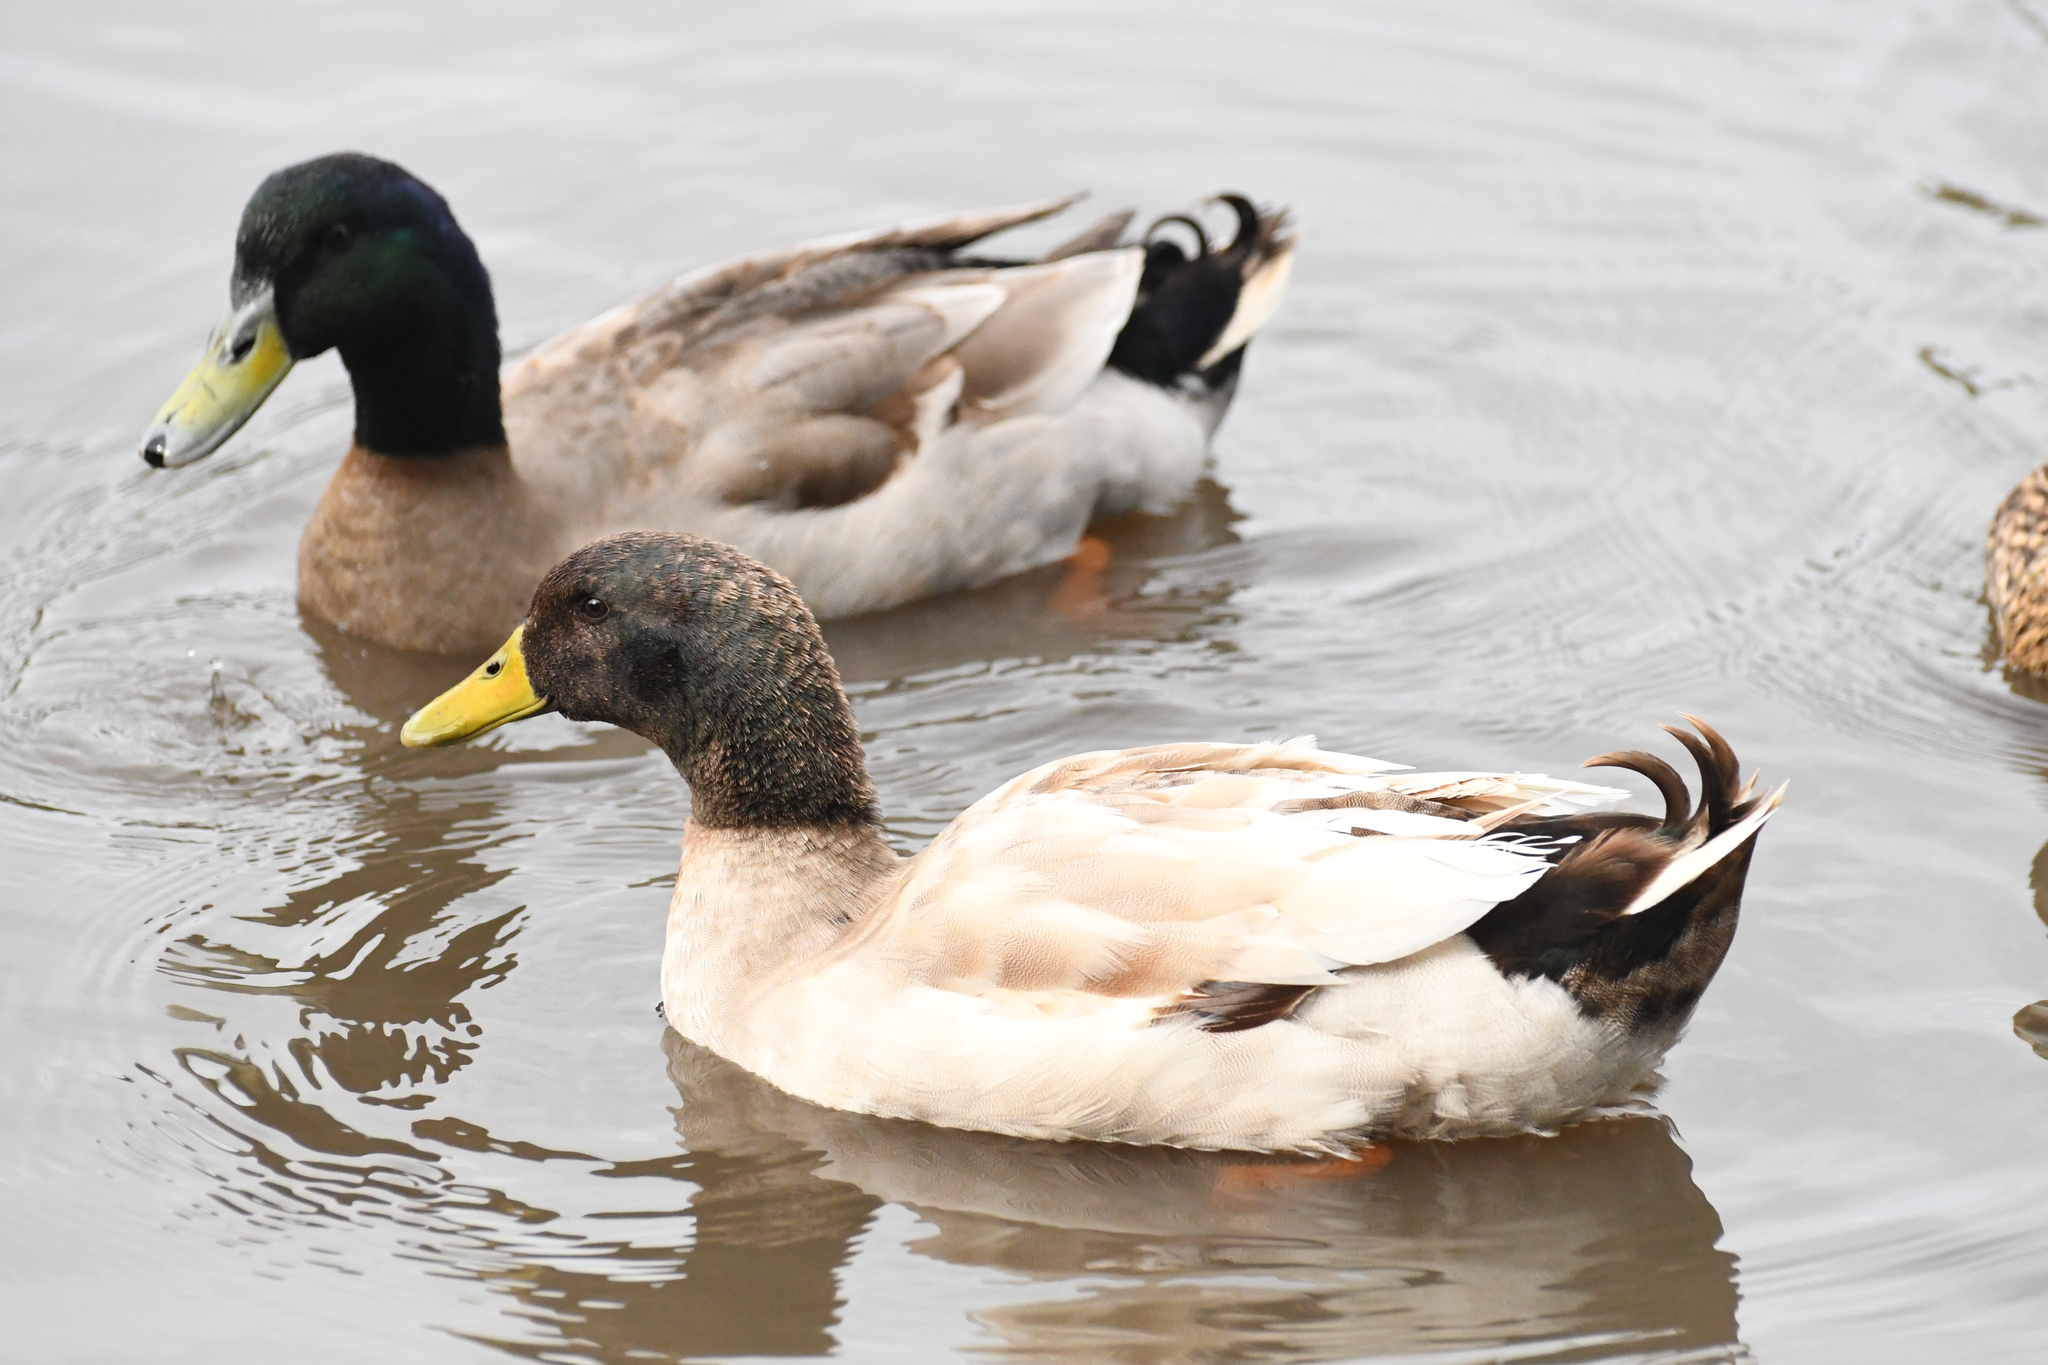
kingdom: Animalia
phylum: Chordata
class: Aves
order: Anseriformes
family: Anatidae
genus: Anas
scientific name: Anas platyrhynchos
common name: Mallard
